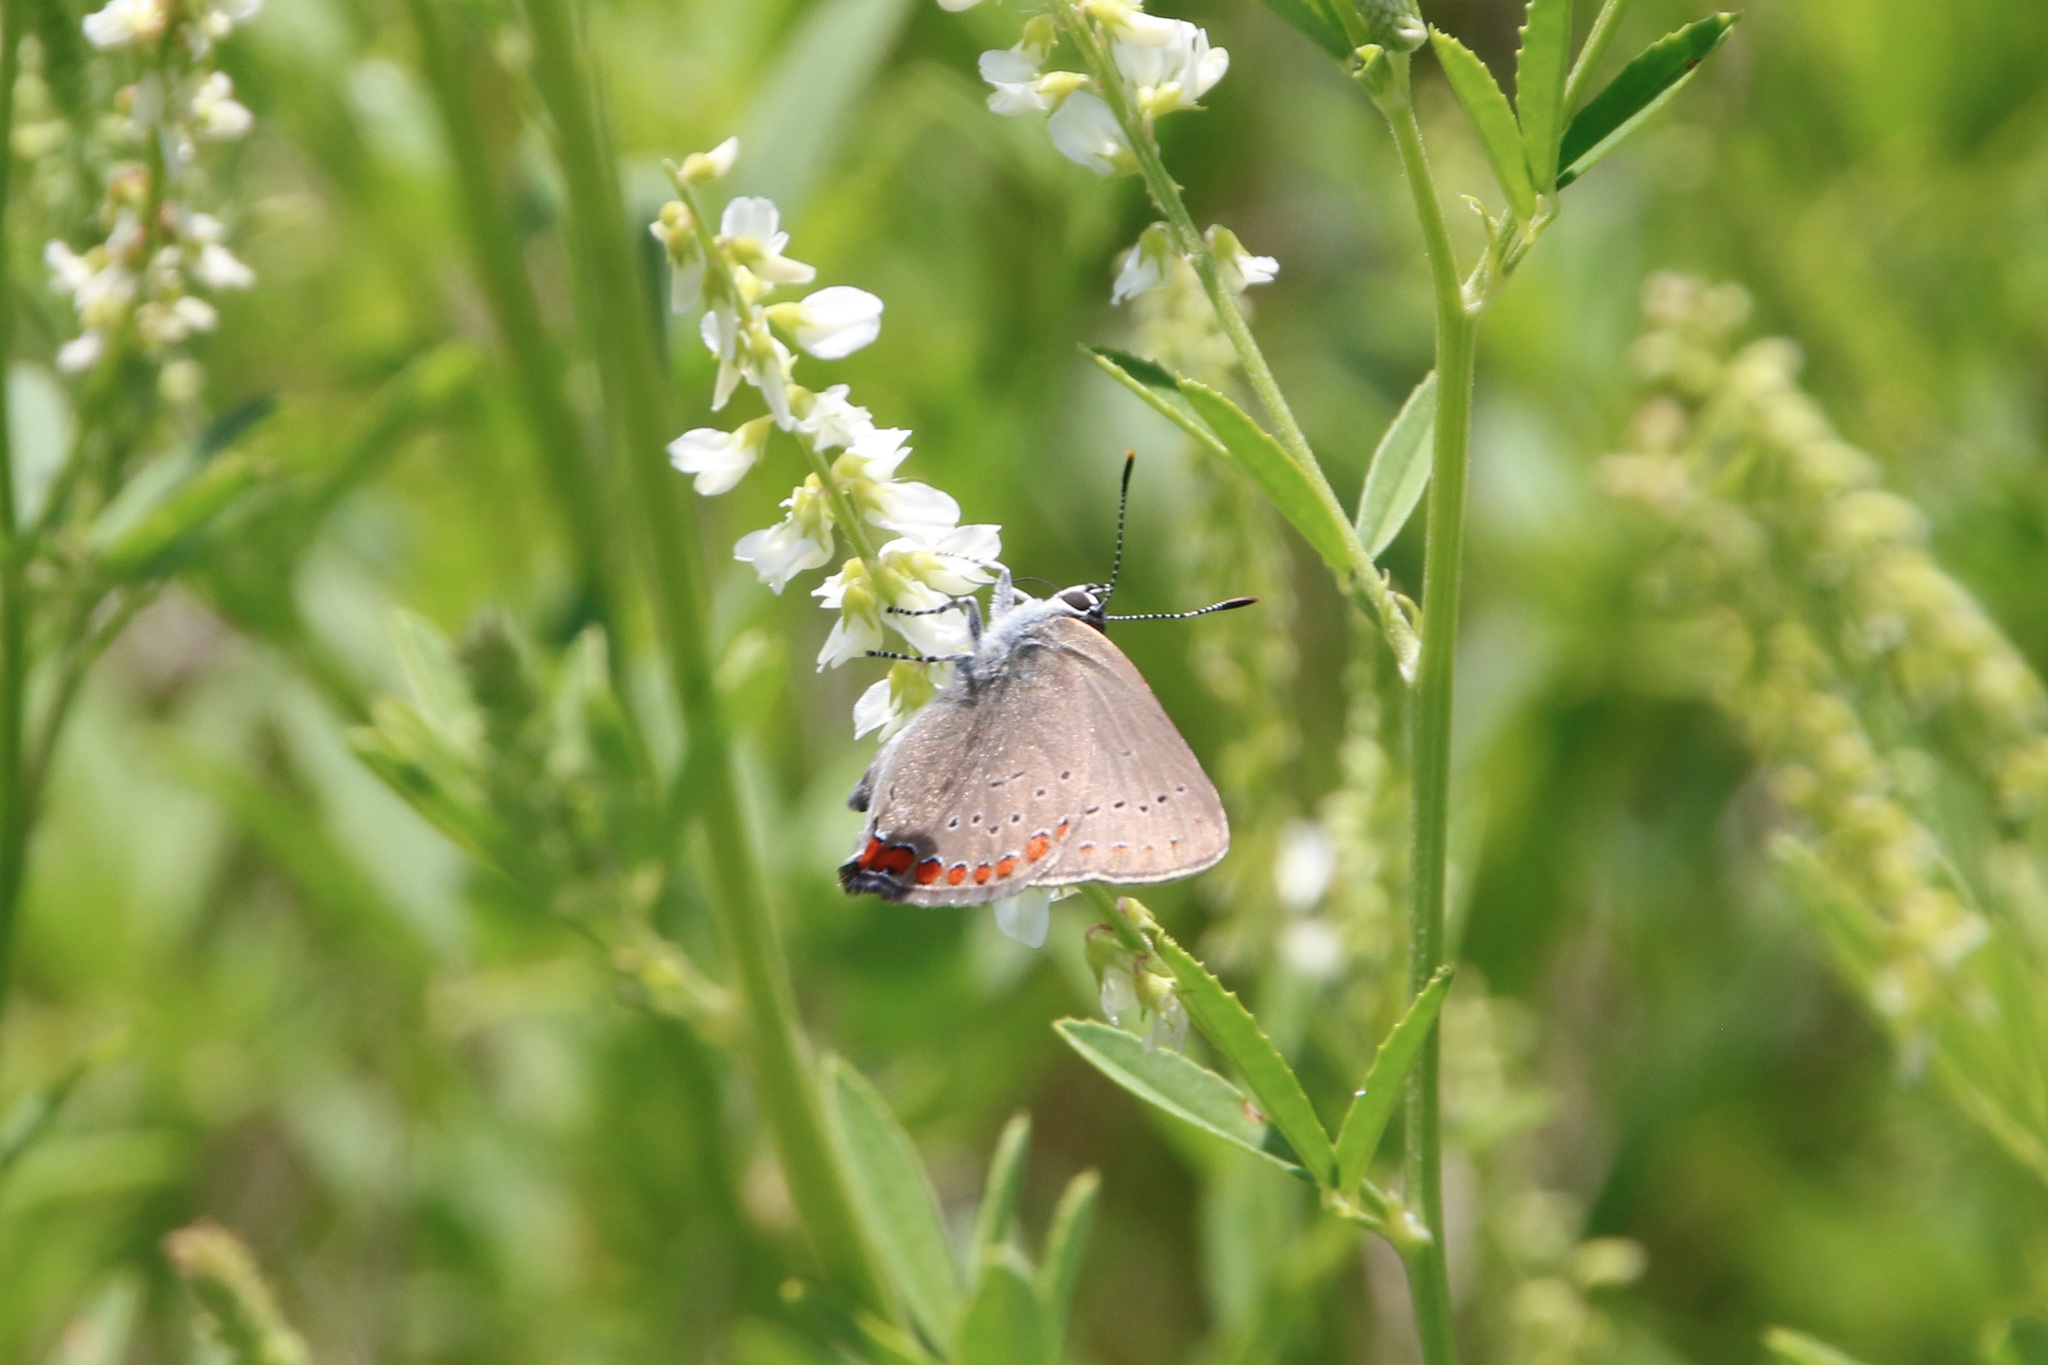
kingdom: Animalia
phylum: Arthropoda
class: Insecta
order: Lepidoptera
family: Lycaenidae
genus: Harkenclenus
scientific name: Harkenclenus titus
